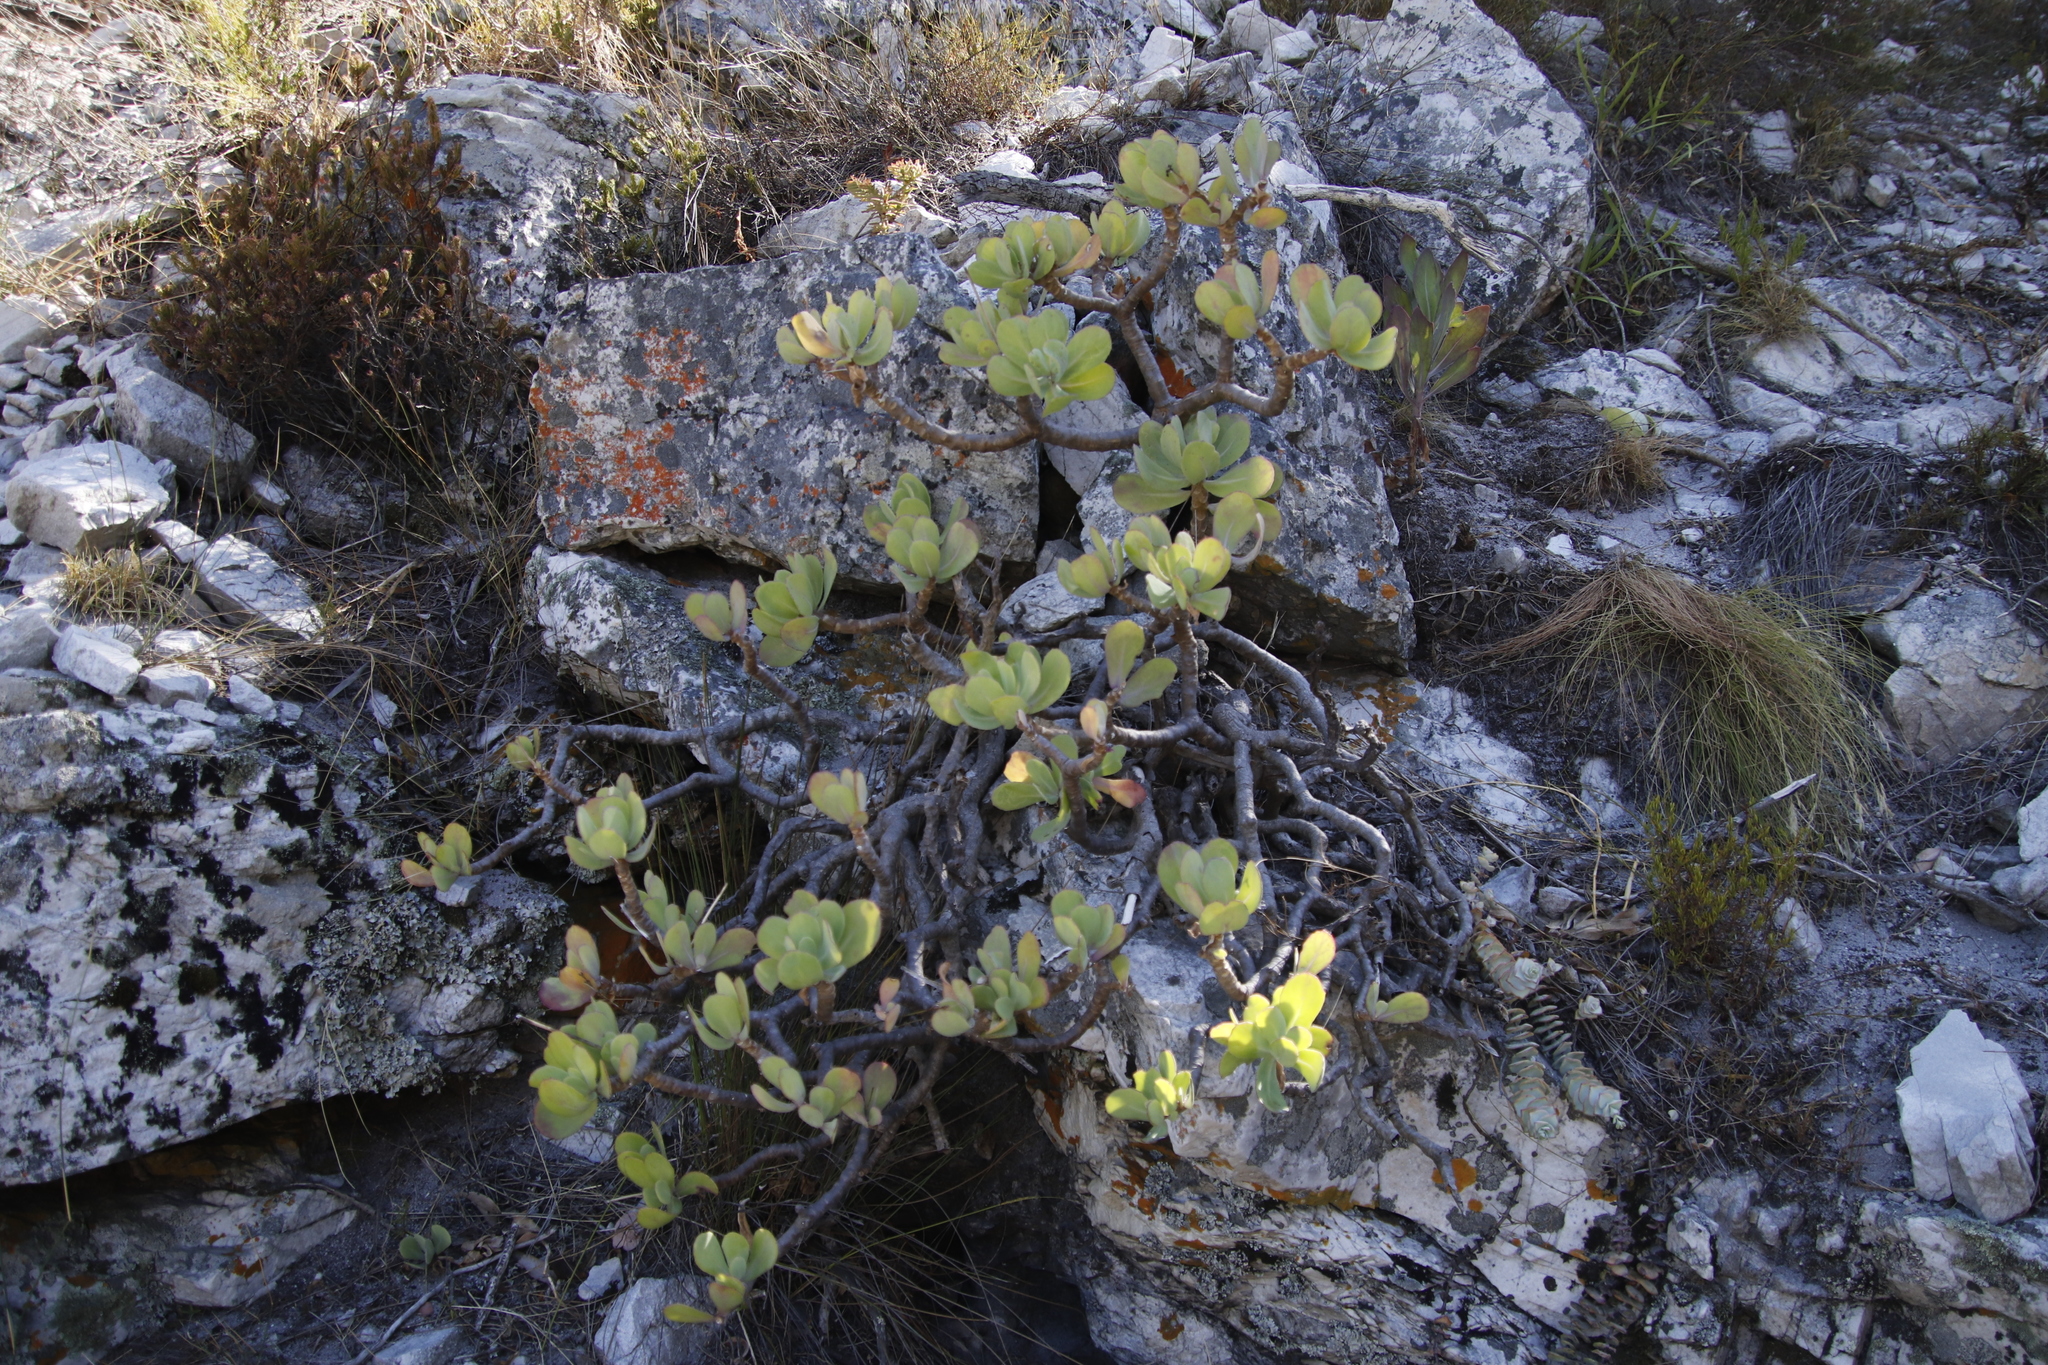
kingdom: Plantae
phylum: Tracheophyta
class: Magnoliopsida
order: Saxifragales
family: Crassulaceae
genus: Cotyledon
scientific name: Cotyledon orbiculata
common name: Pig's ear
